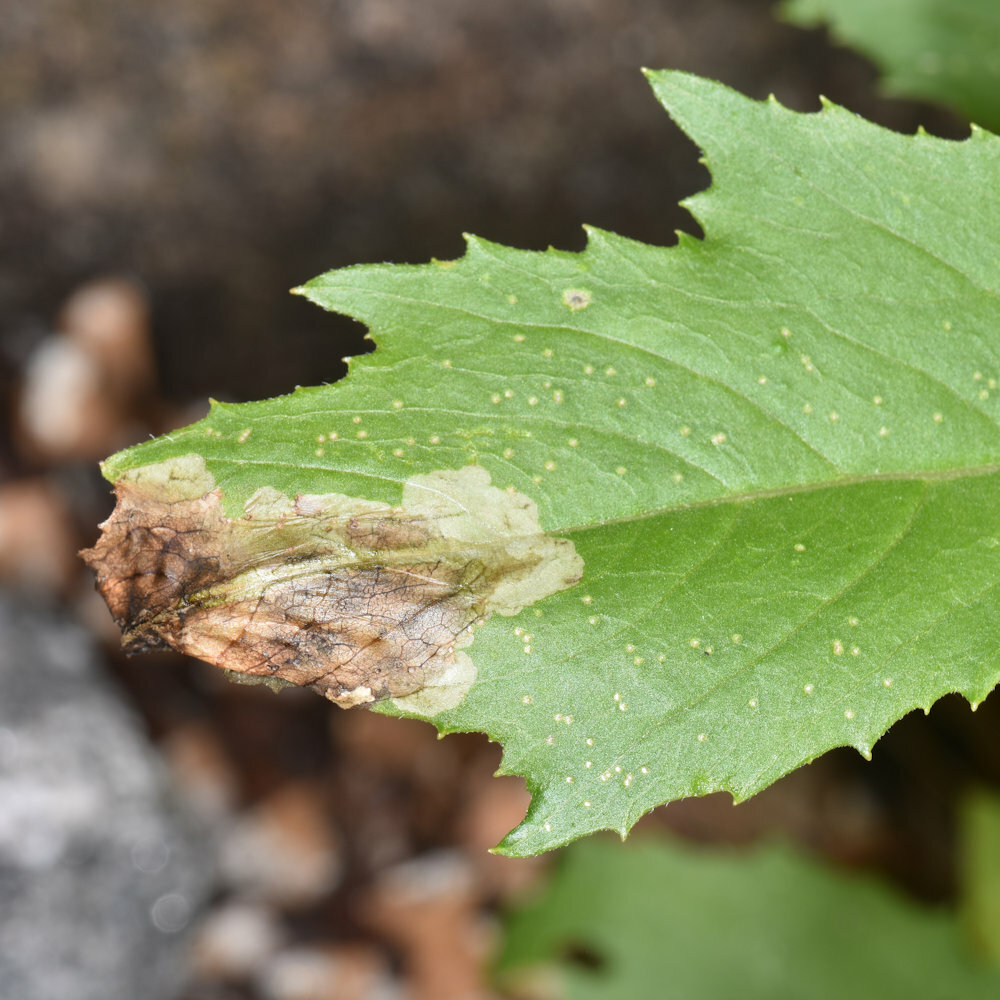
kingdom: Animalia
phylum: Arthropoda
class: Insecta
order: Diptera
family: Agromyzidae
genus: Nemorimyza
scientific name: Nemorimyza maculosa
